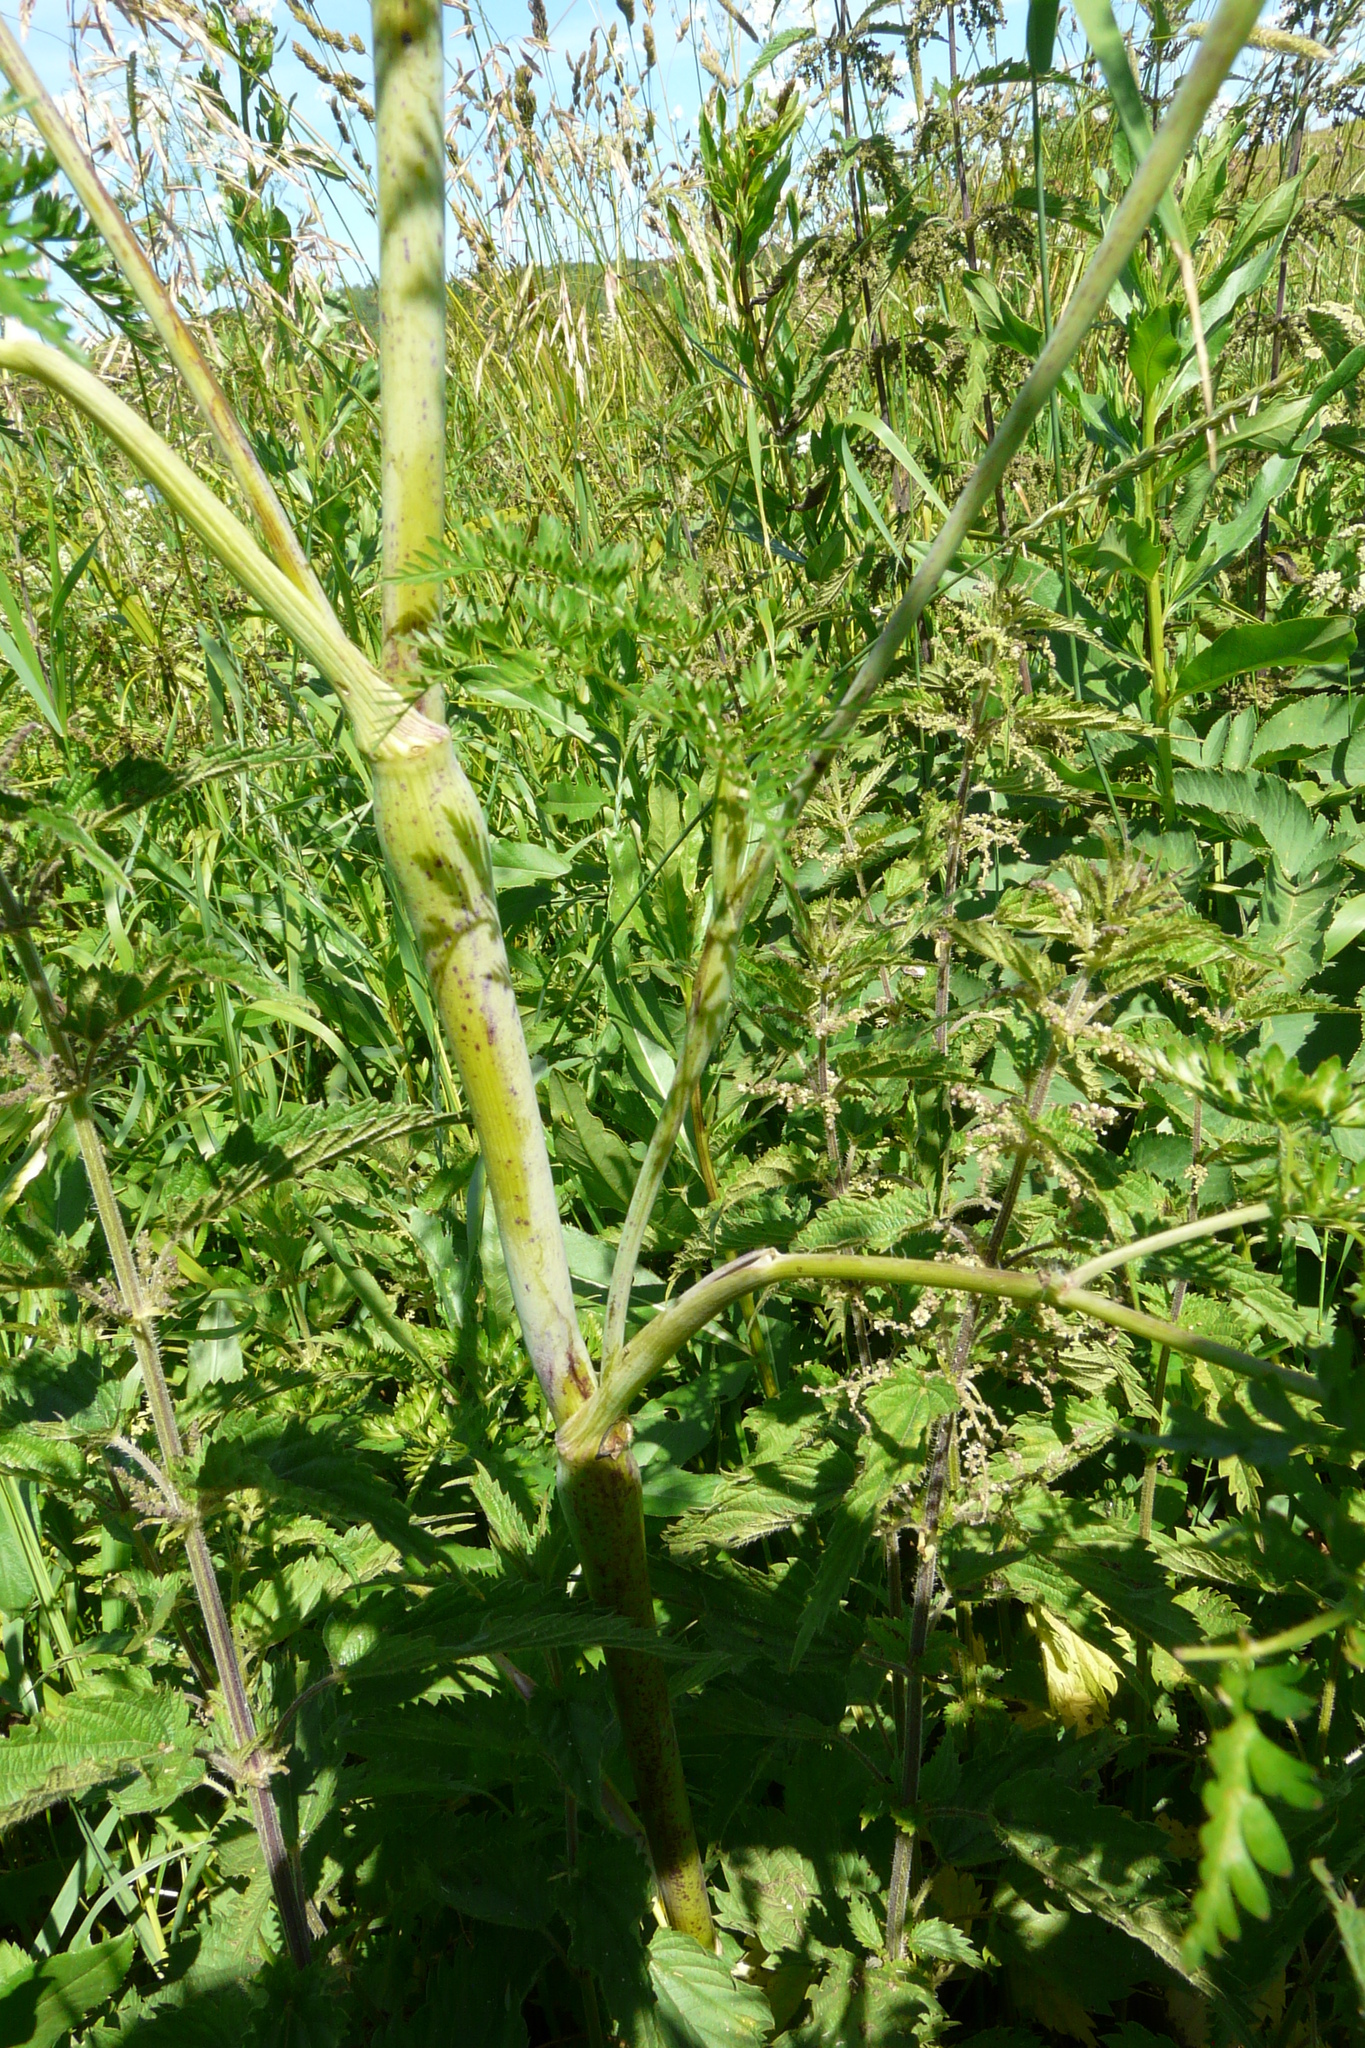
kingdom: Plantae
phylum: Tracheophyta
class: Magnoliopsida
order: Apiales
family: Apiaceae
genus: Chaerophyllum
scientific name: Chaerophyllum bulbosum
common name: Bulbous chervil
